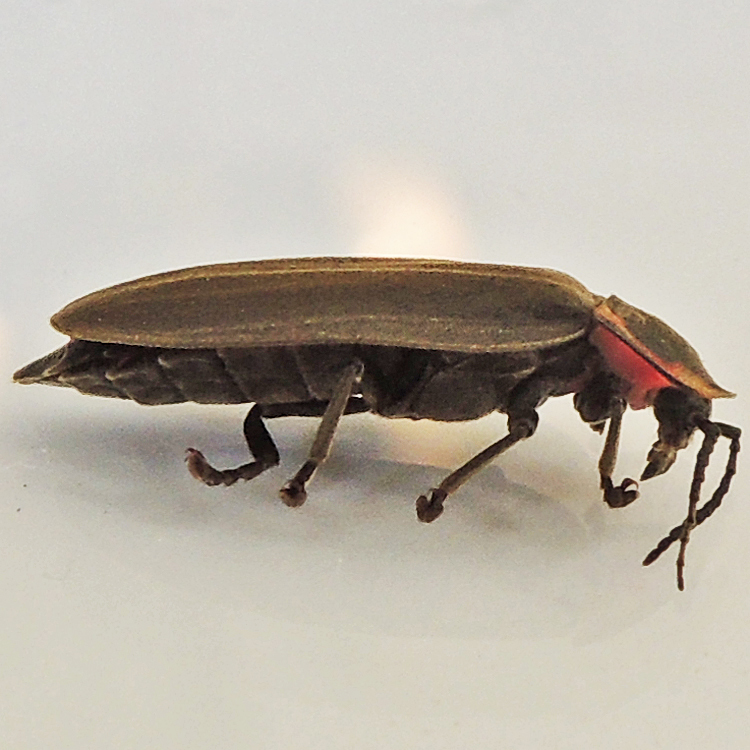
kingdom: Animalia
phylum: Arthropoda
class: Insecta
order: Coleoptera
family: Lampyridae
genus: Photinus
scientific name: Photinus corrusca
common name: Winter firefly
